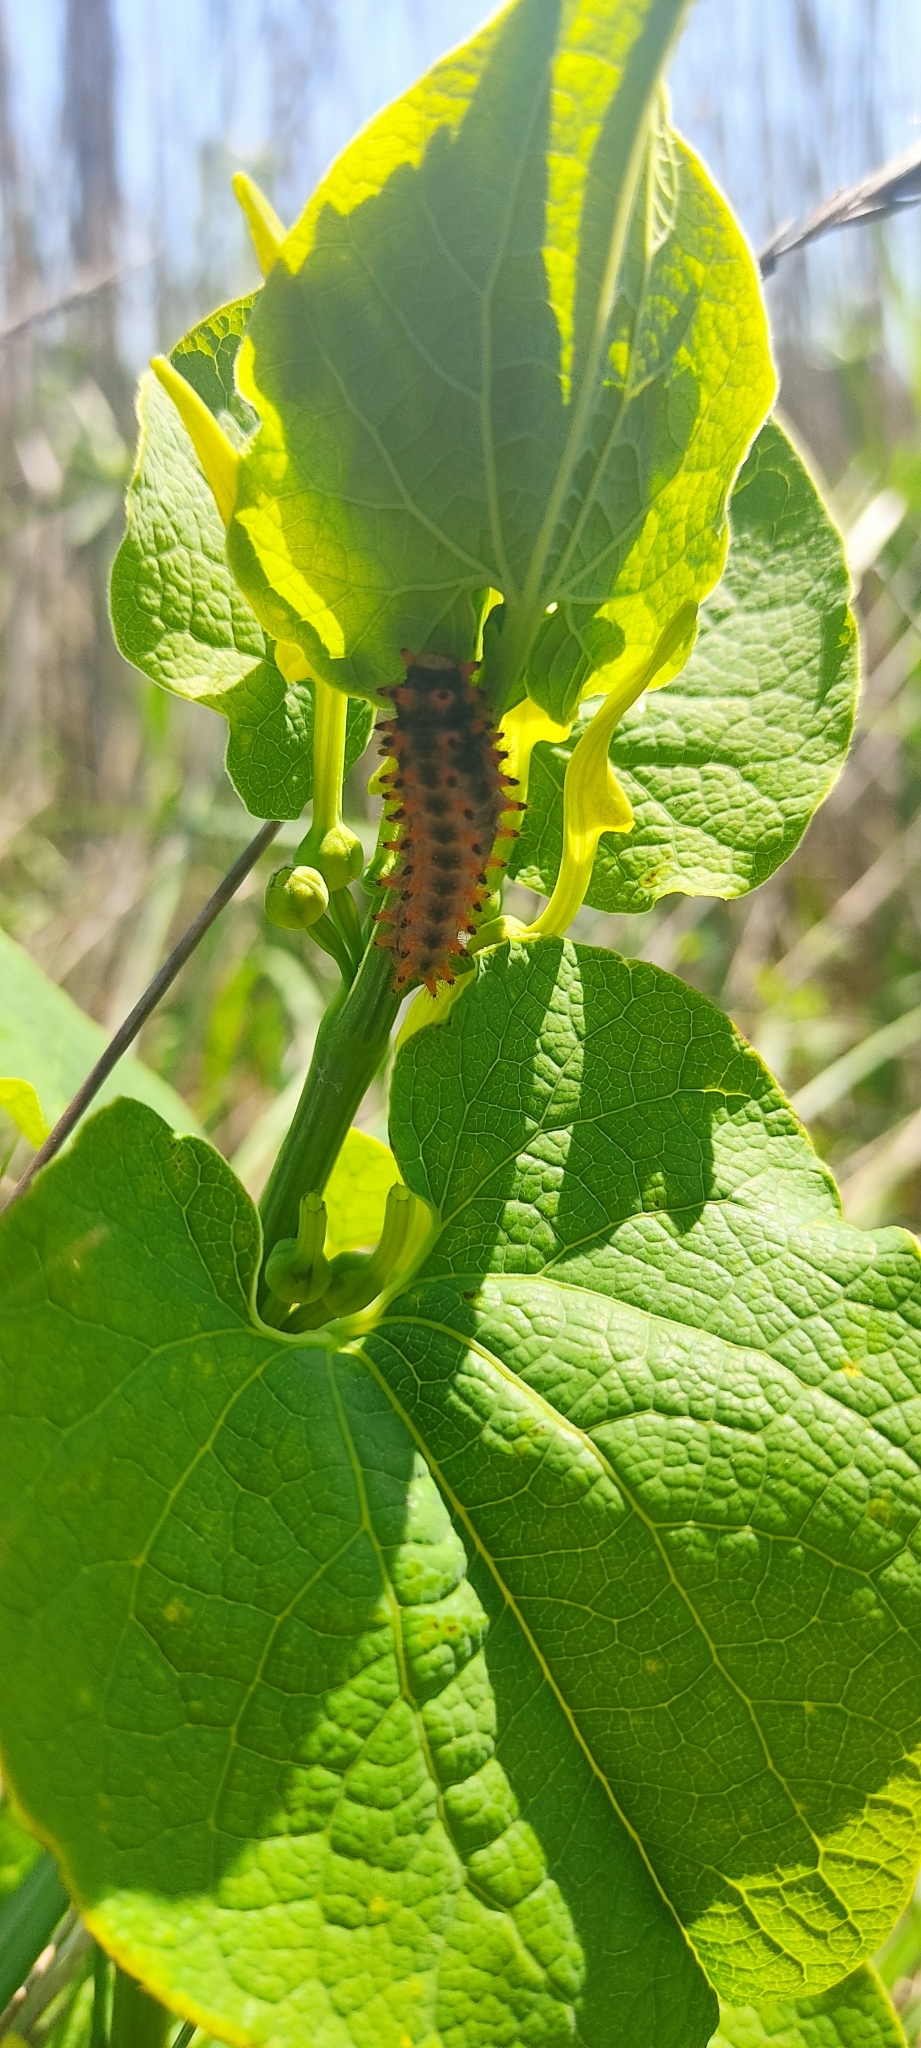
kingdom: Animalia
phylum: Arthropoda
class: Insecta
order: Lepidoptera
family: Papilionidae
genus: Zerynthia
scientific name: Zerynthia polyxena
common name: Southern festoon
